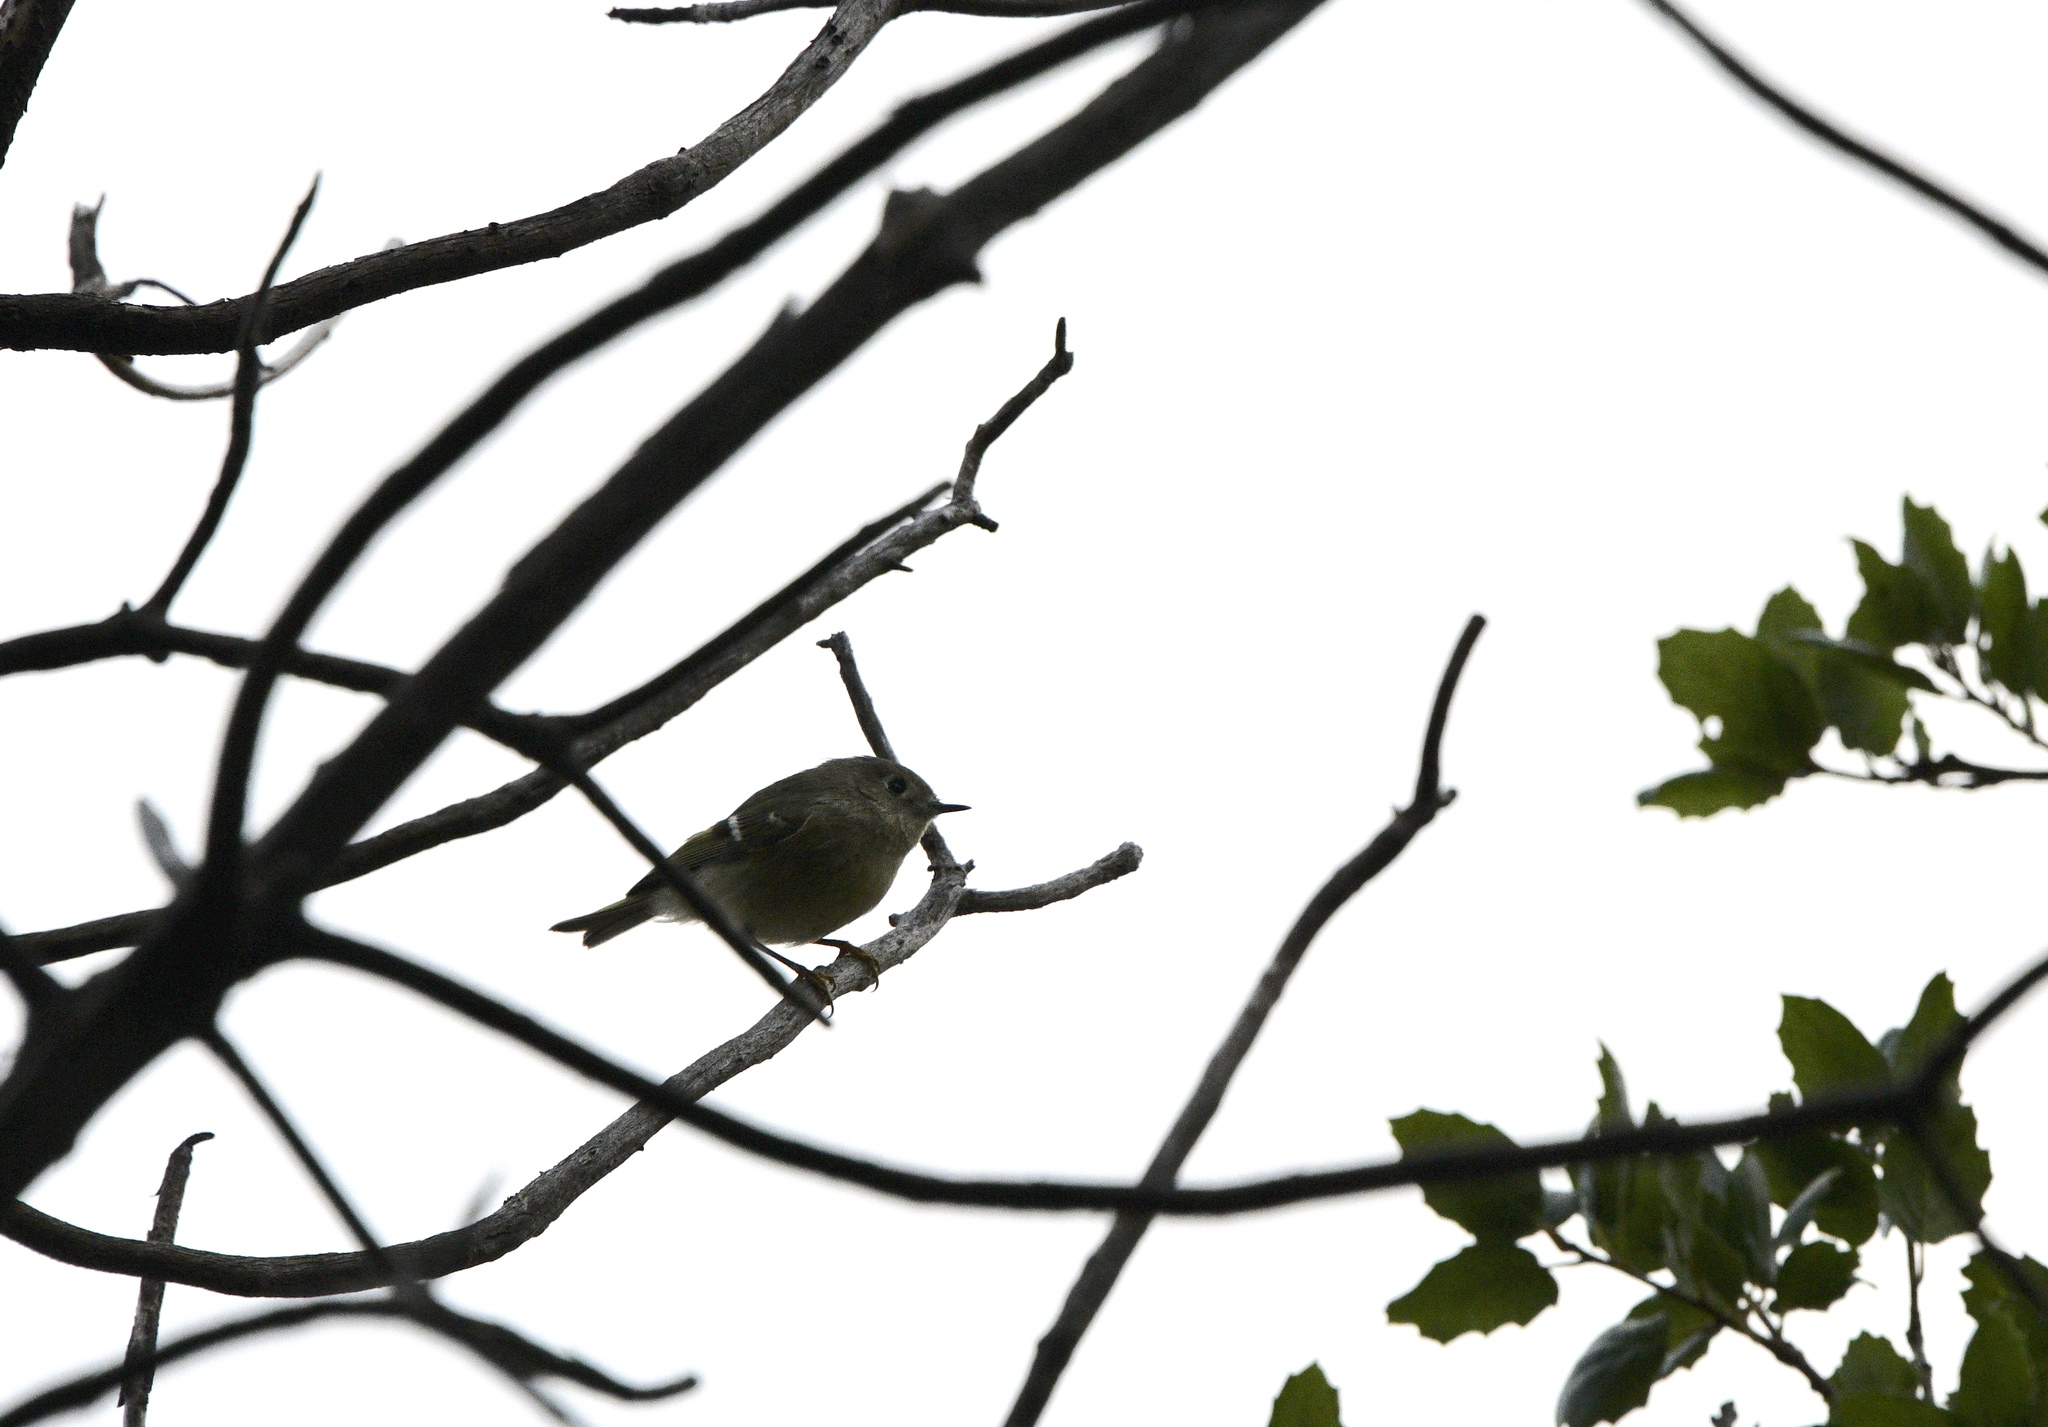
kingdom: Animalia
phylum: Chordata
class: Aves
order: Passeriformes
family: Regulidae
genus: Regulus
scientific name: Regulus calendula
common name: Ruby-crowned kinglet
